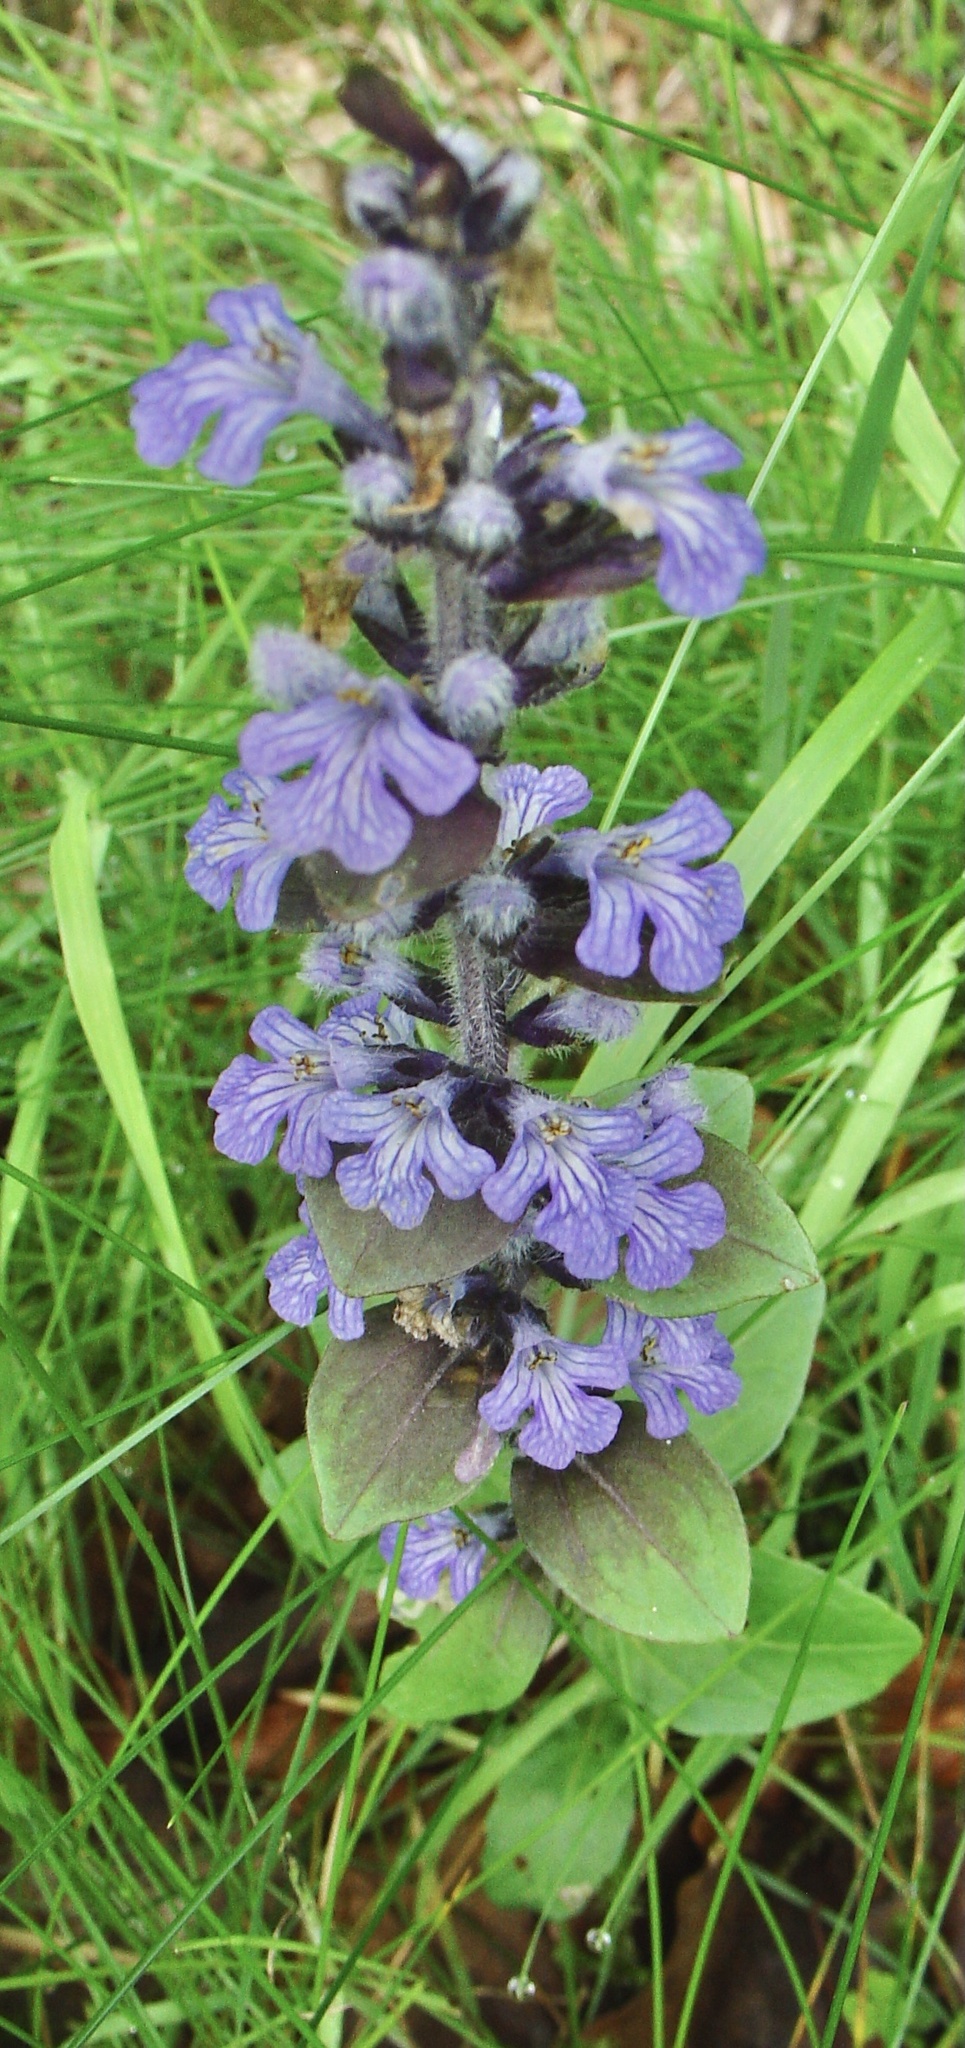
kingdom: Plantae
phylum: Tracheophyta
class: Magnoliopsida
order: Lamiales
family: Lamiaceae
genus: Ajuga
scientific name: Ajuga reptans
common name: Bugle
